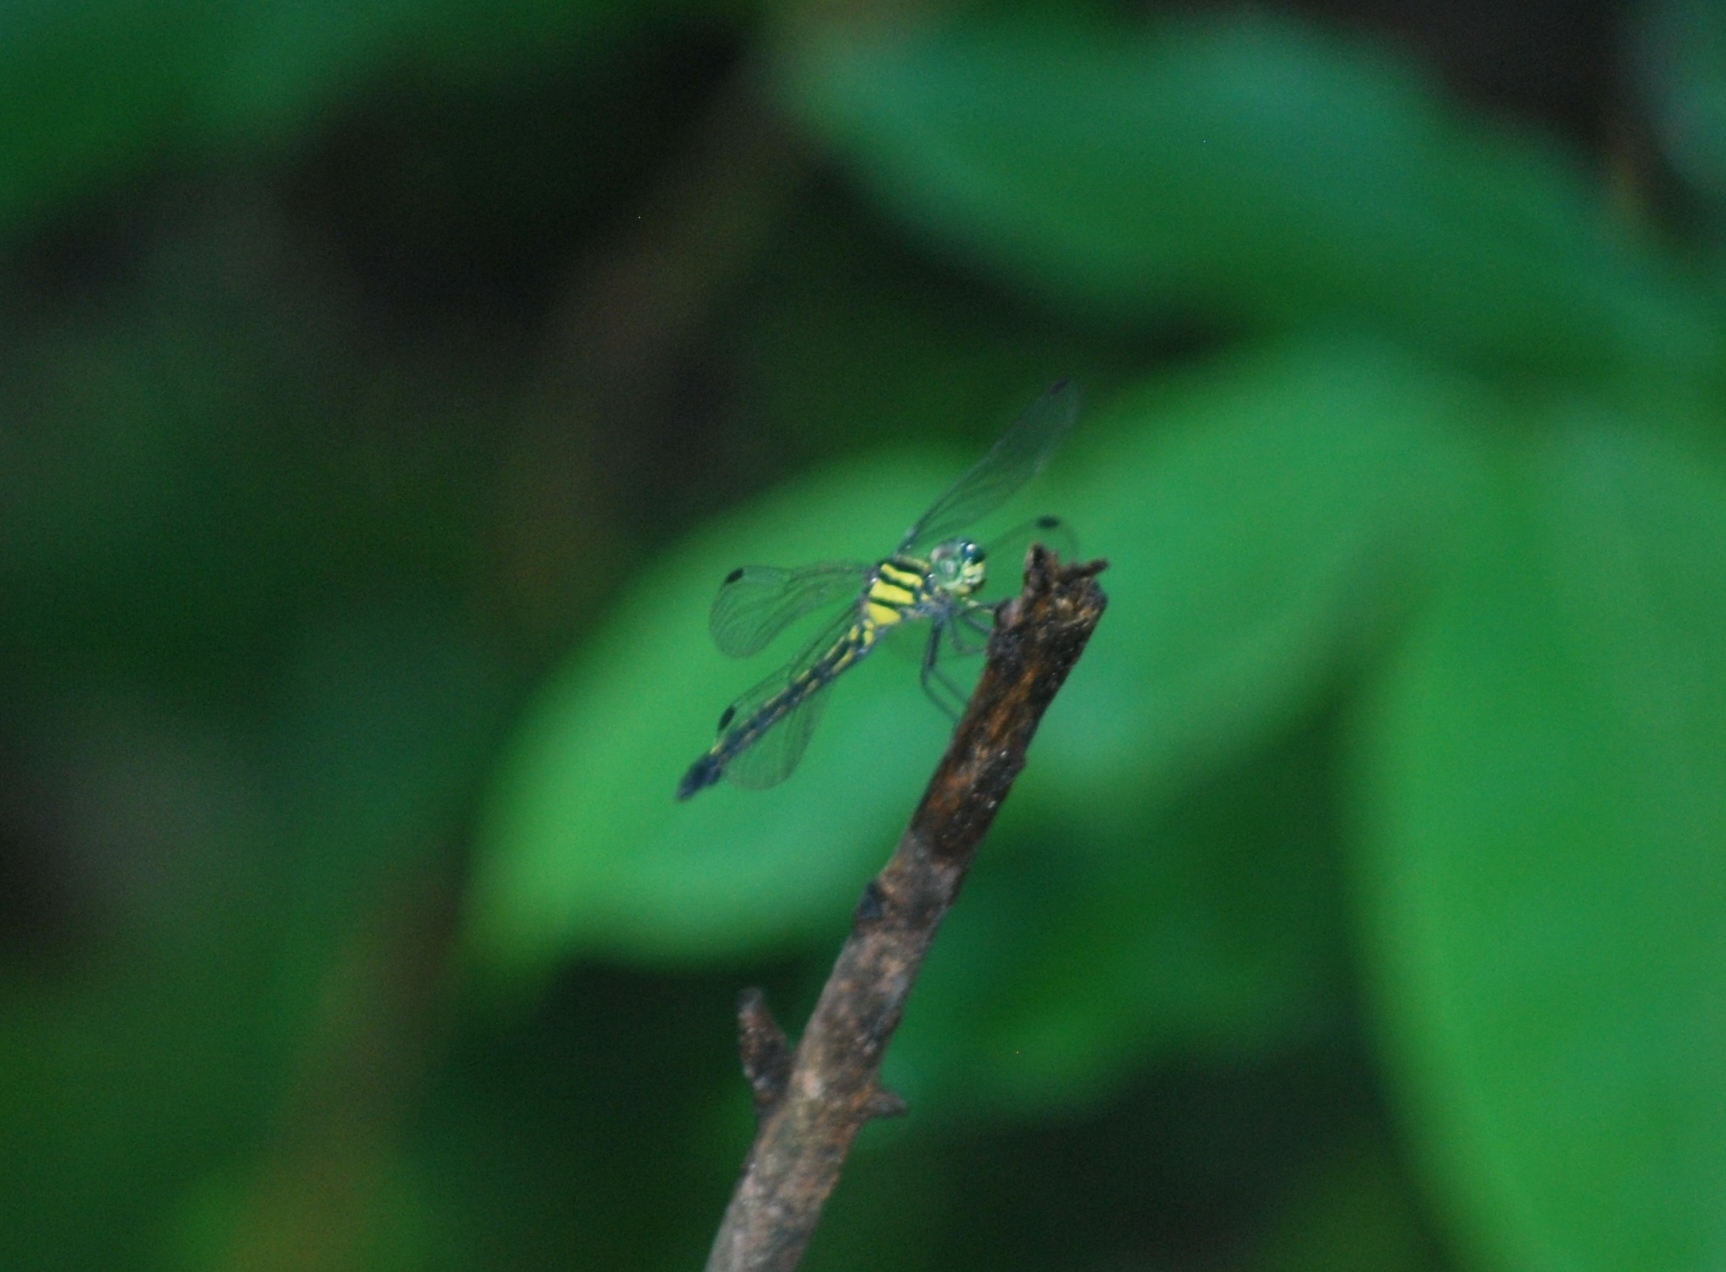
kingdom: Animalia
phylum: Arthropoda
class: Insecta
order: Odonata
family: Libellulidae
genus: Hylaeothemis
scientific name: Hylaeothemis apicalis
